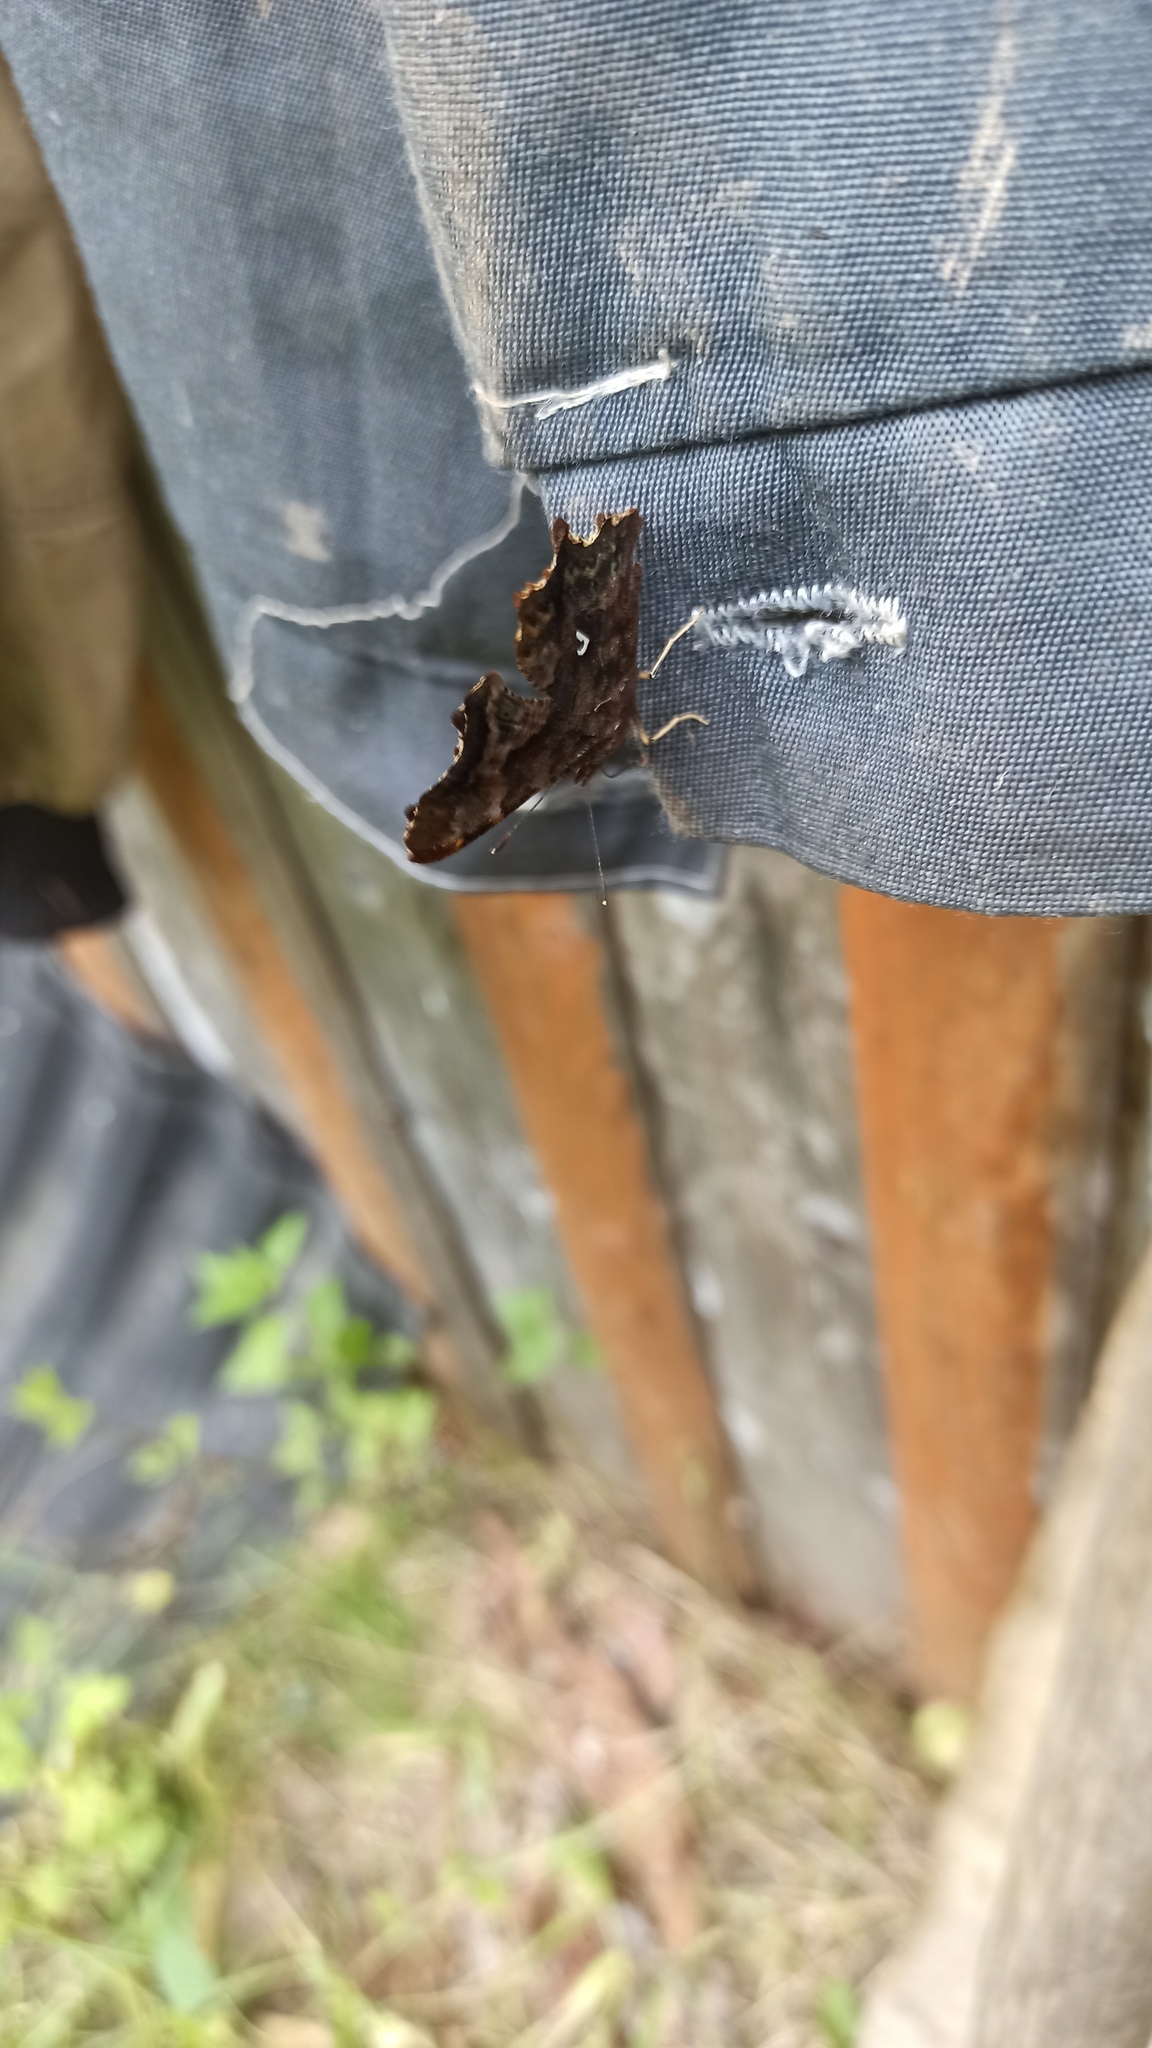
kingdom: Animalia
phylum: Arthropoda
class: Insecta
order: Lepidoptera
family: Nymphalidae
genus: Polygonia
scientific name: Polygonia c-album
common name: Comma
